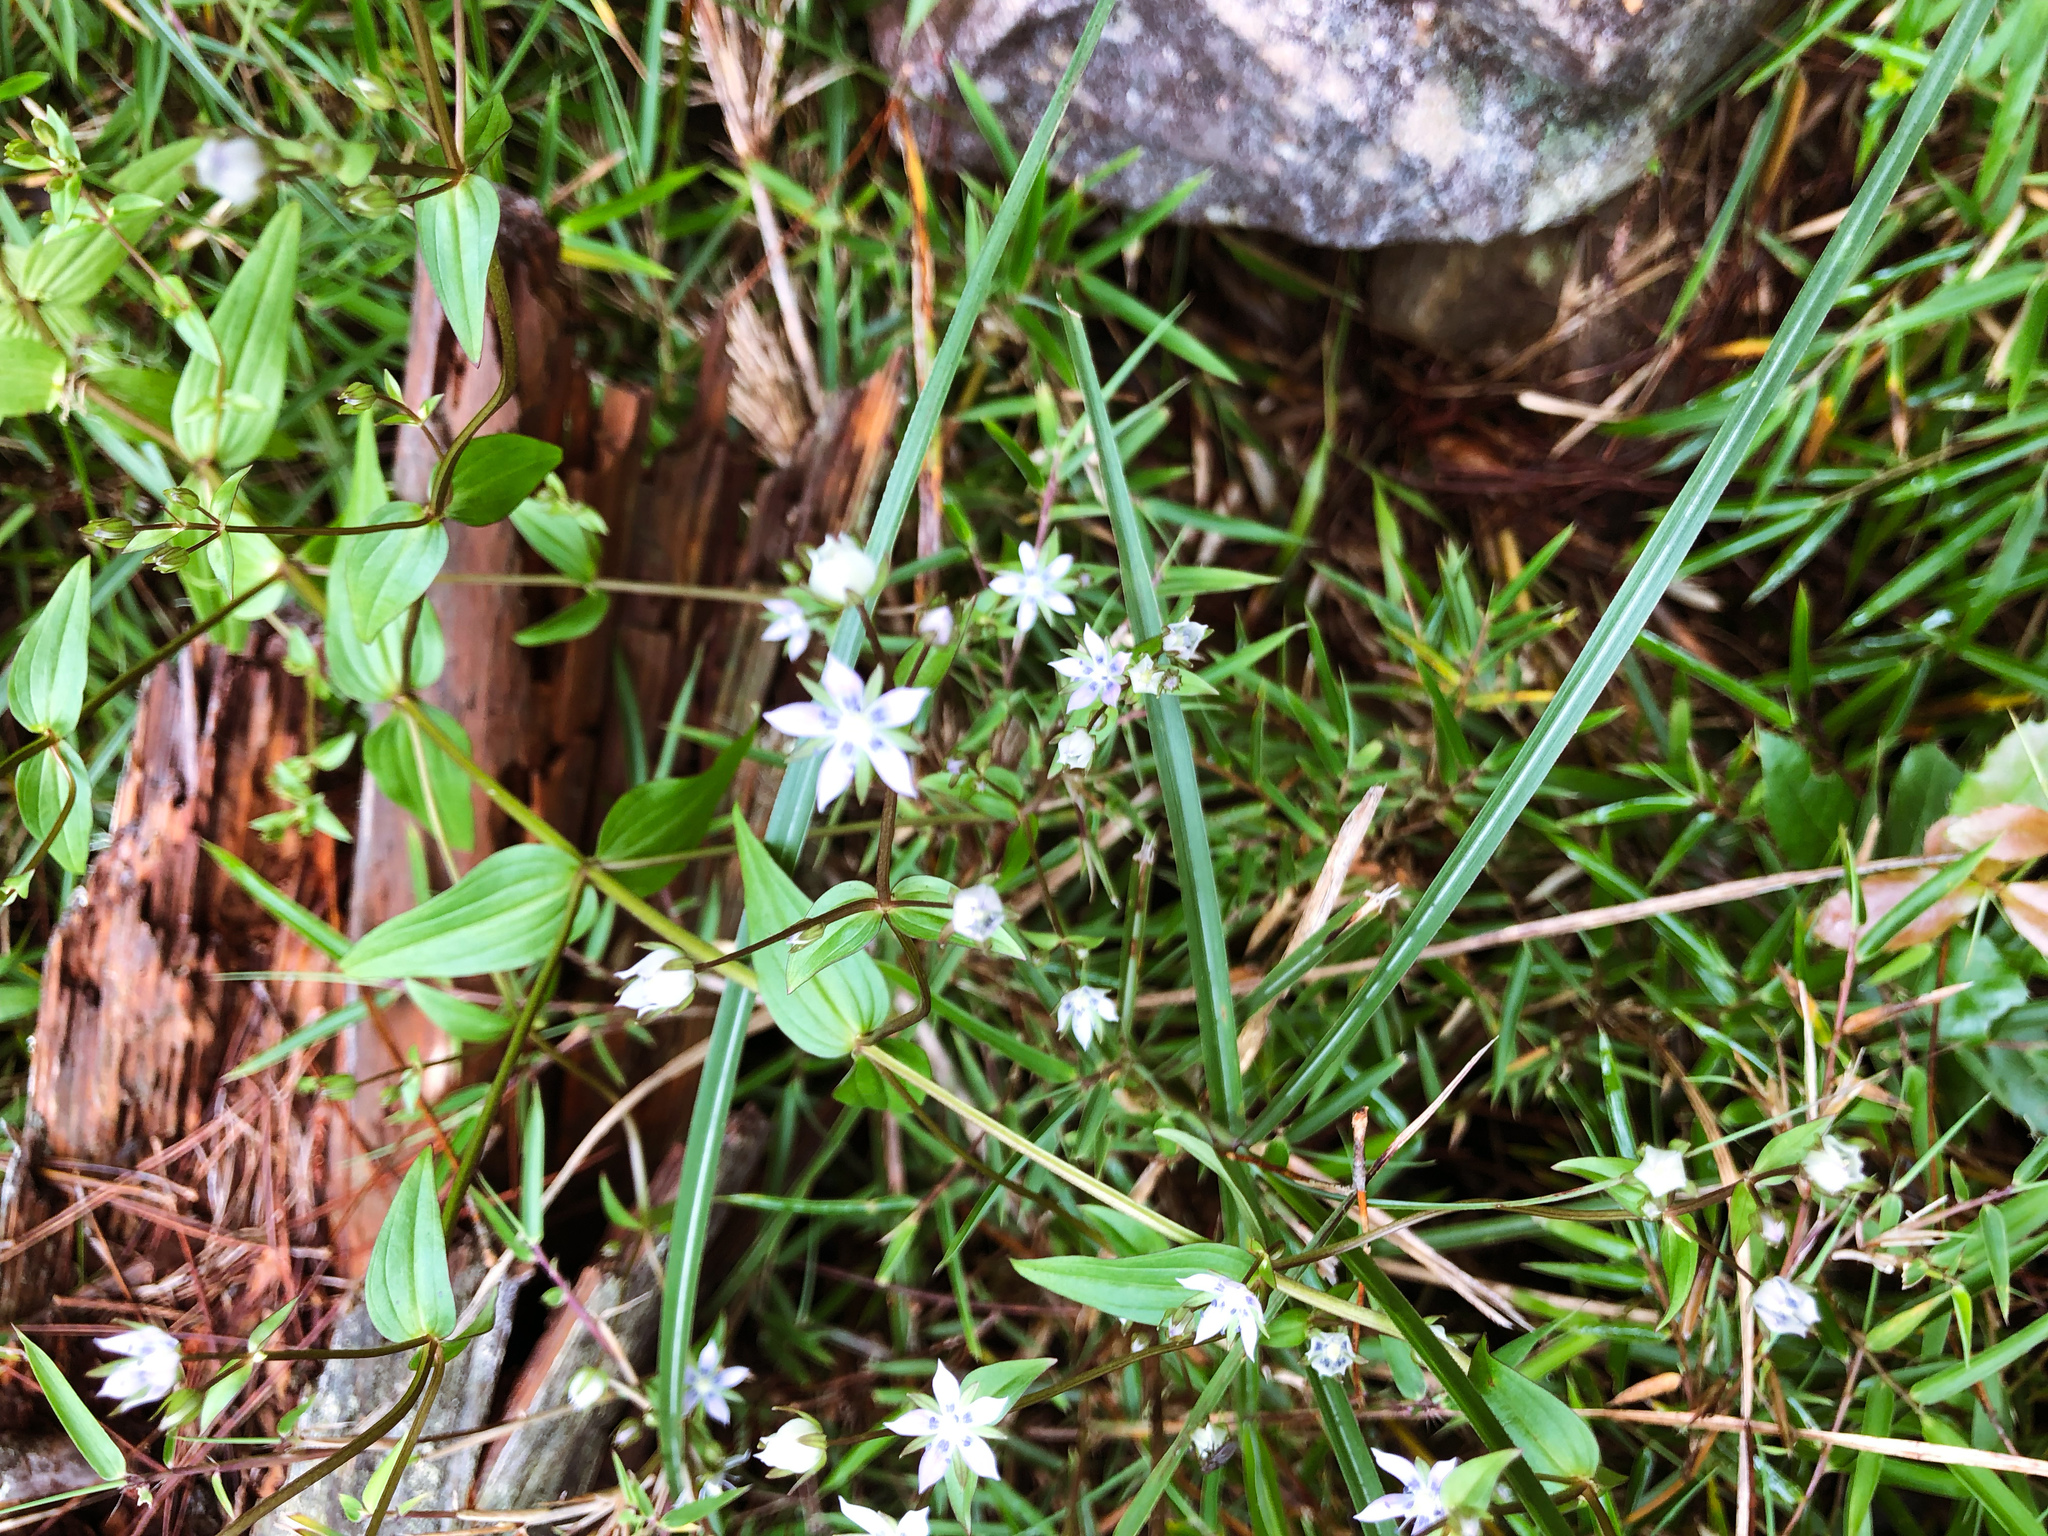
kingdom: Plantae
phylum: Tracheophyta
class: Magnoliopsida
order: Gentianales
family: Gentianaceae
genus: Swertia
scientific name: Swertia macrosperma
